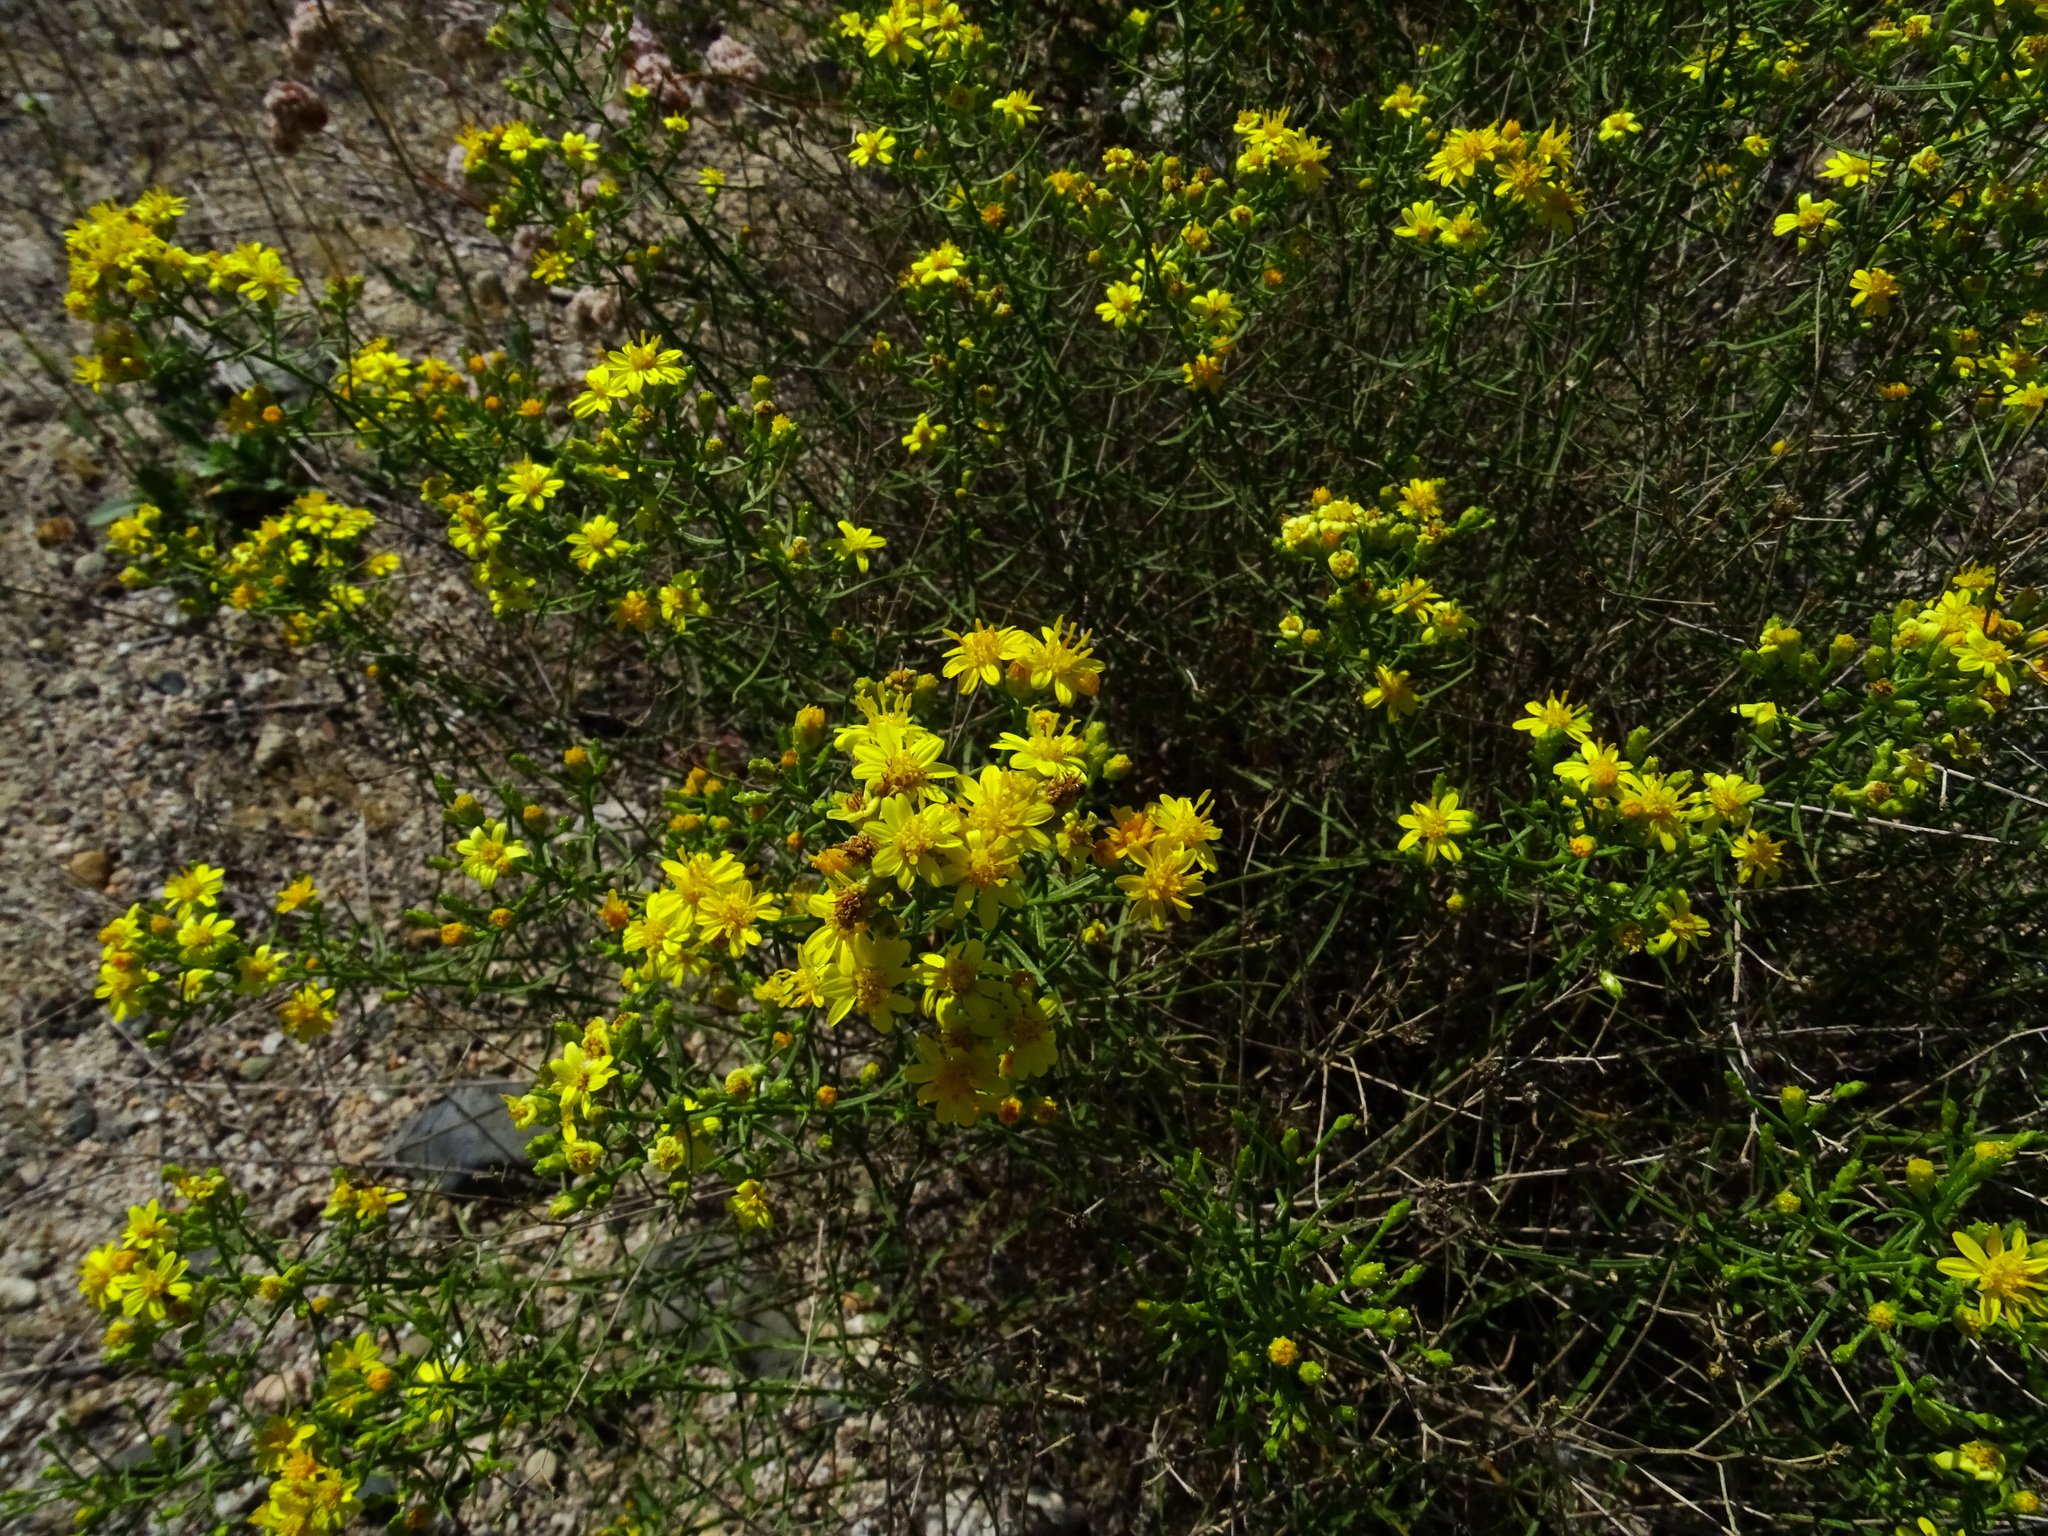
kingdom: Plantae
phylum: Tracheophyta
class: Magnoliopsida
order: Asterales
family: Asteraceae
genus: Gutierrezia
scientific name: Gutierrezia californica
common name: California matchweed
